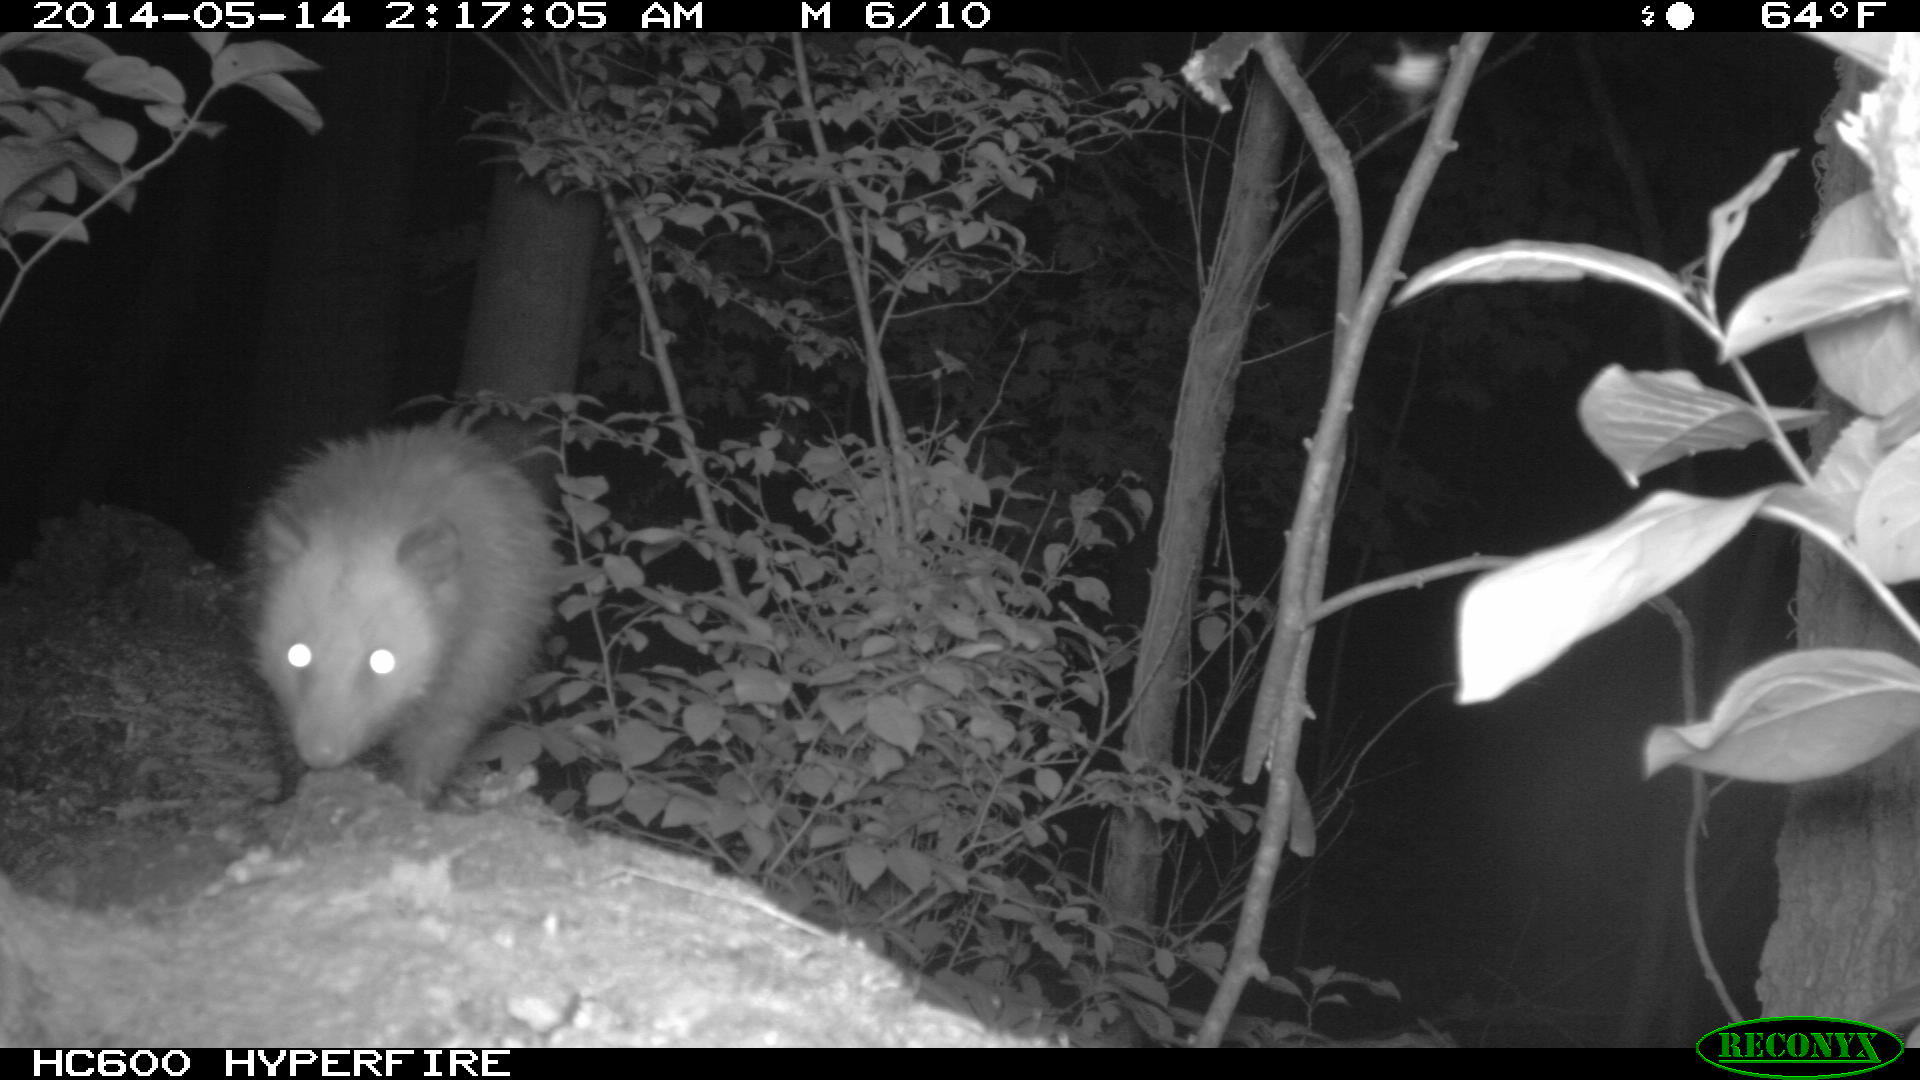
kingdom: Animalia
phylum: Chordata
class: Mammalia
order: Didelphimorphia
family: Didelphidae
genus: Didelphis
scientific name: Didelphis virginiana
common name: Virginia opossum
